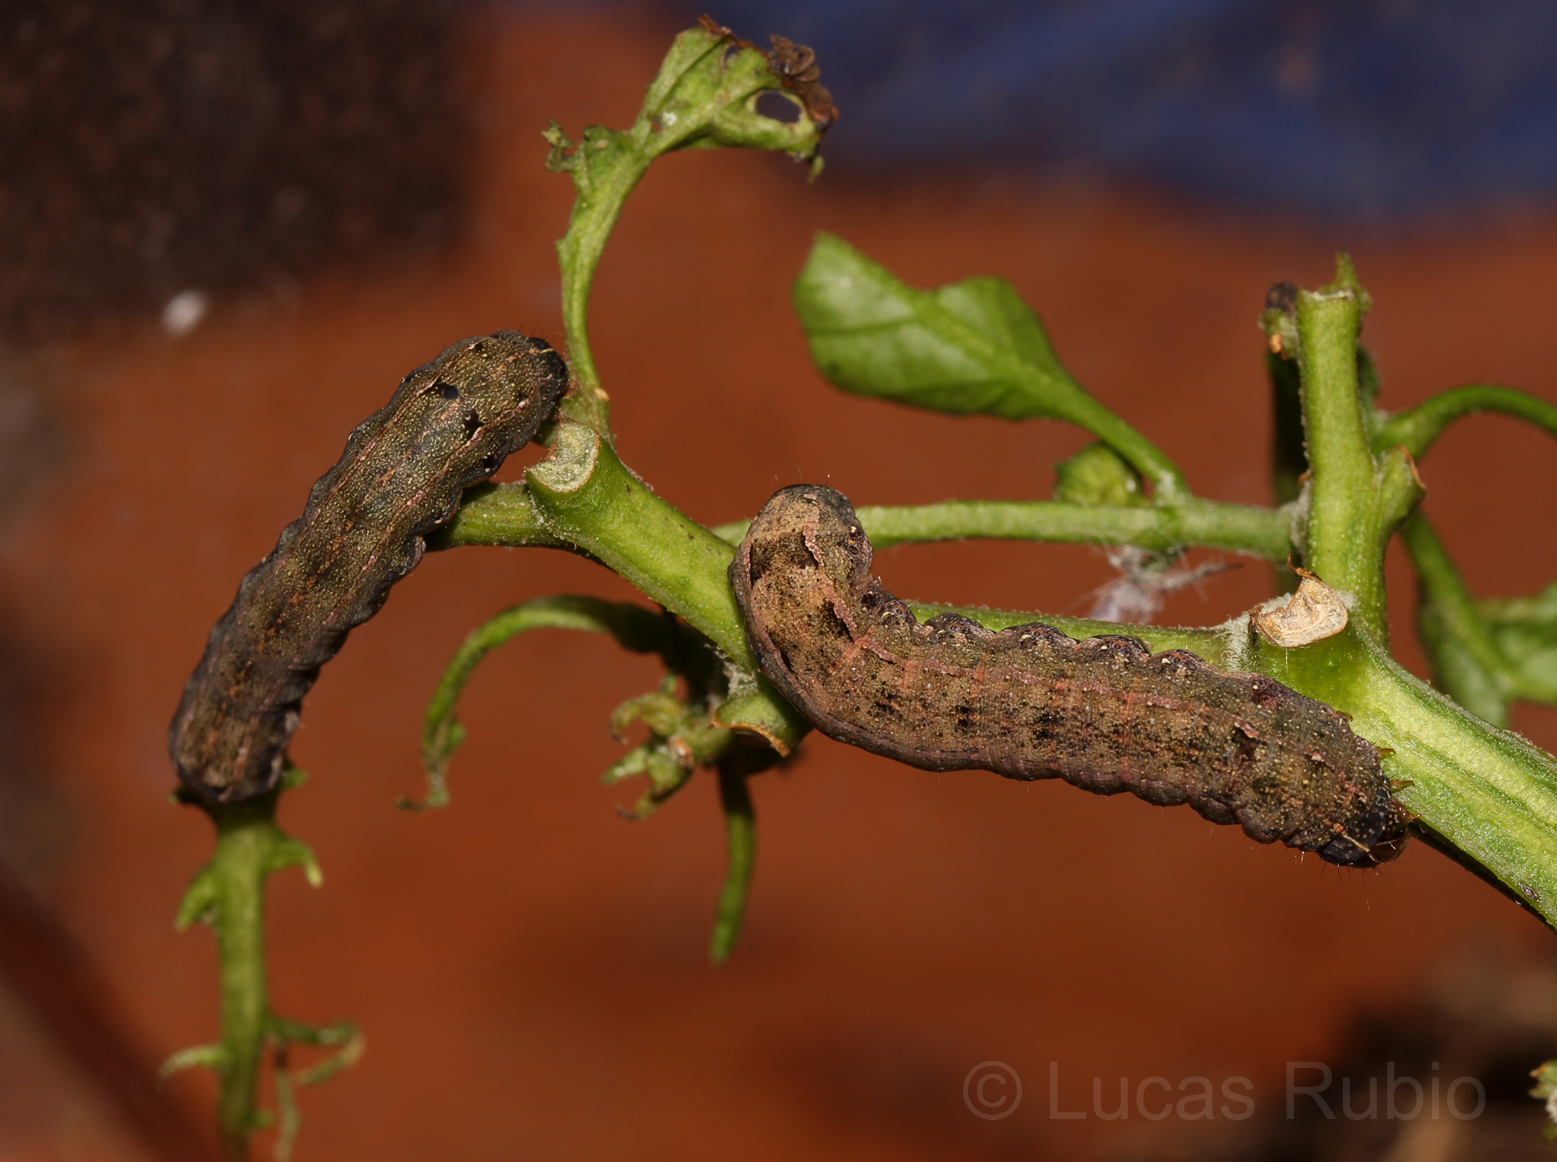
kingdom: Animalia
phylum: Arthropoda
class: Insecta
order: Lepidoptera
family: Noctuidae
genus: Spodoptera
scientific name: Spodoptera eridania
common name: Southern army worm
